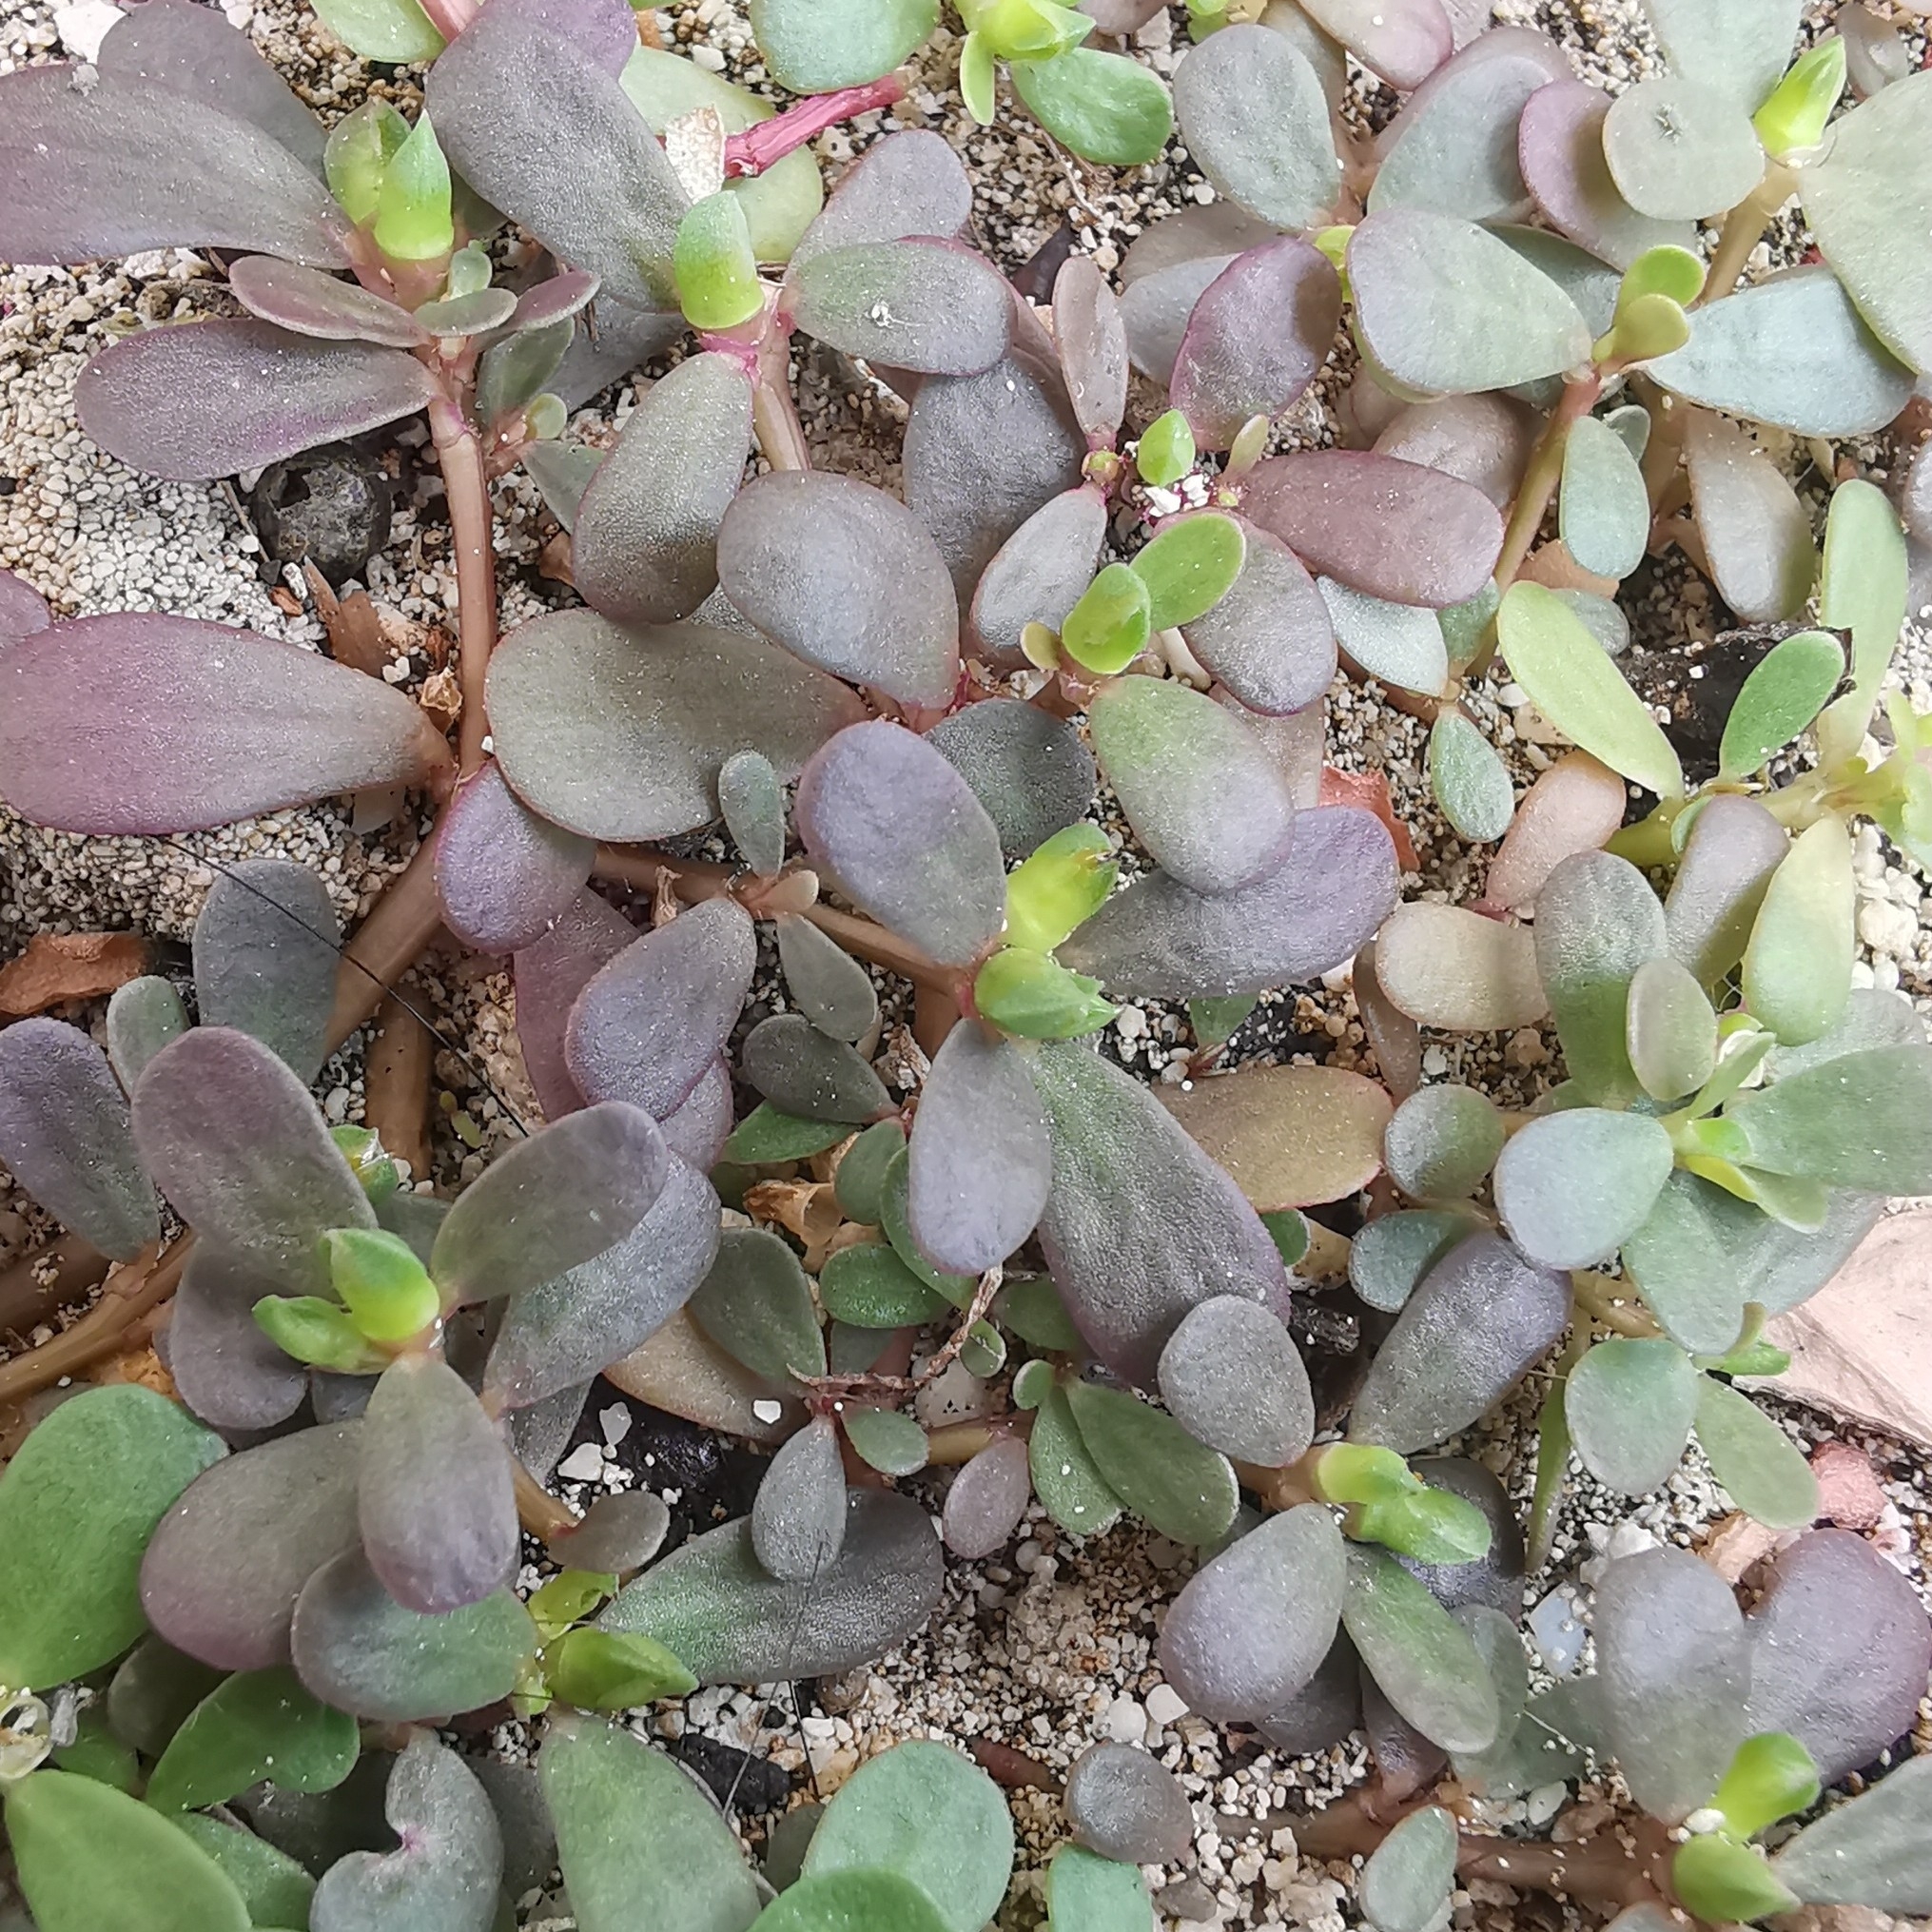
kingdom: Plantae
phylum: Tracheophyta
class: Magnoliopsida
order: Caryophyllales
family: Portulacaceae
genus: Portulaca
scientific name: Portulaca oleracea
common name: Common purslane
